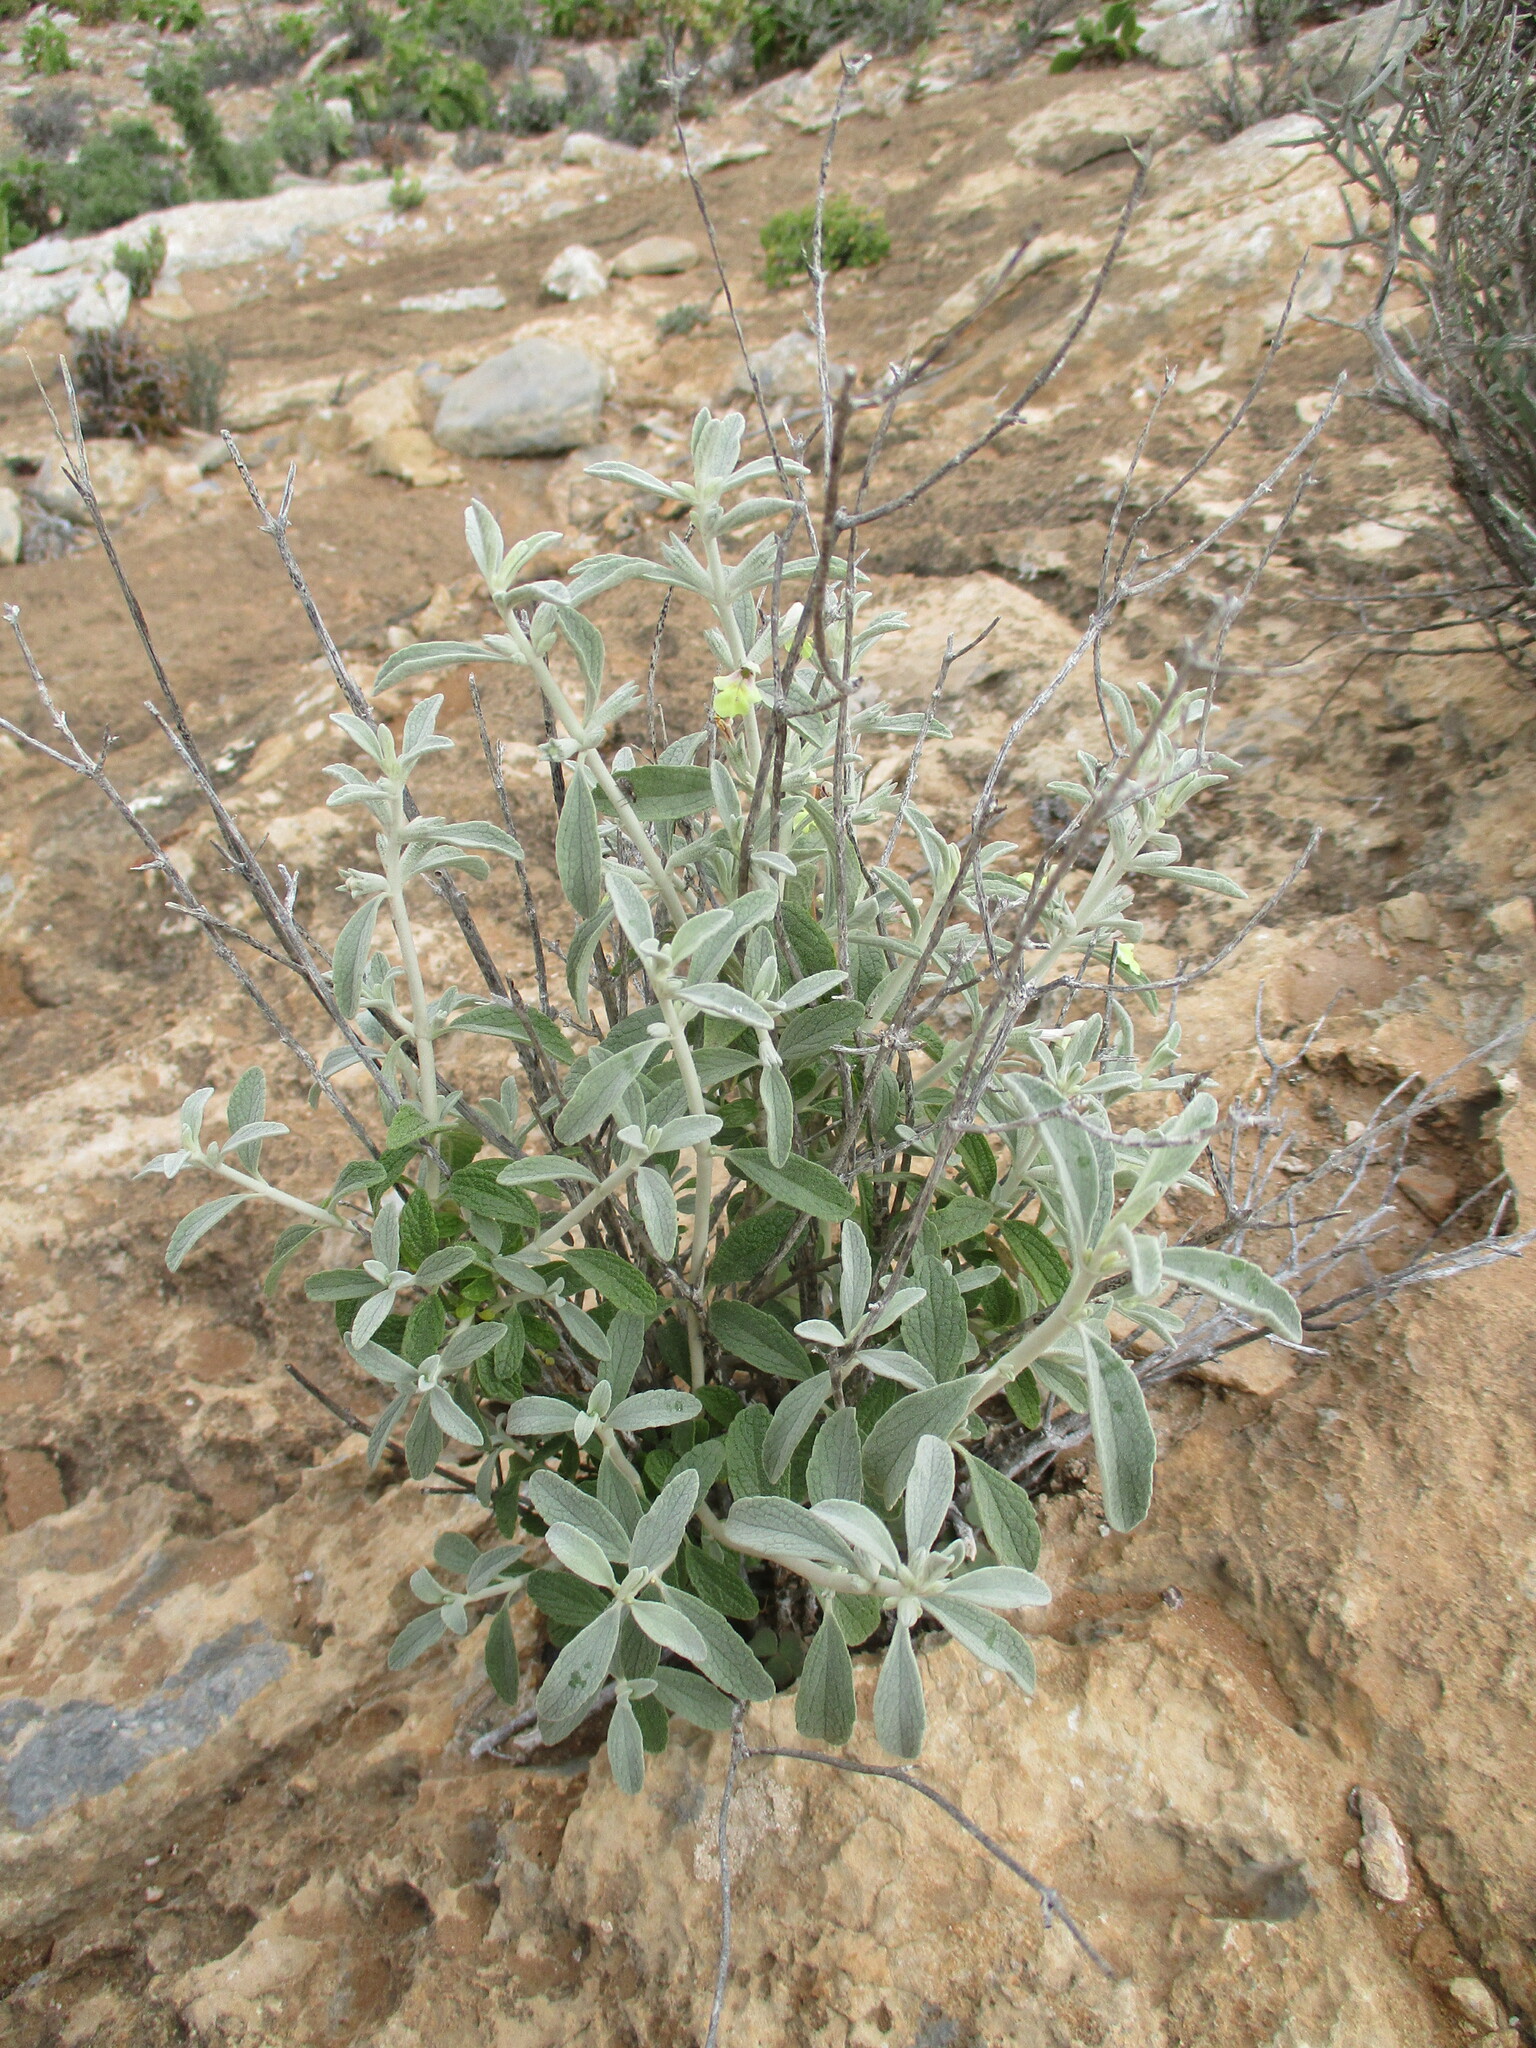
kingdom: Plantae
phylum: Tracheophyta
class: Magnoliopsida
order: Lamiales
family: Lamiaceae
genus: Stachys
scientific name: Stachys rugosa
